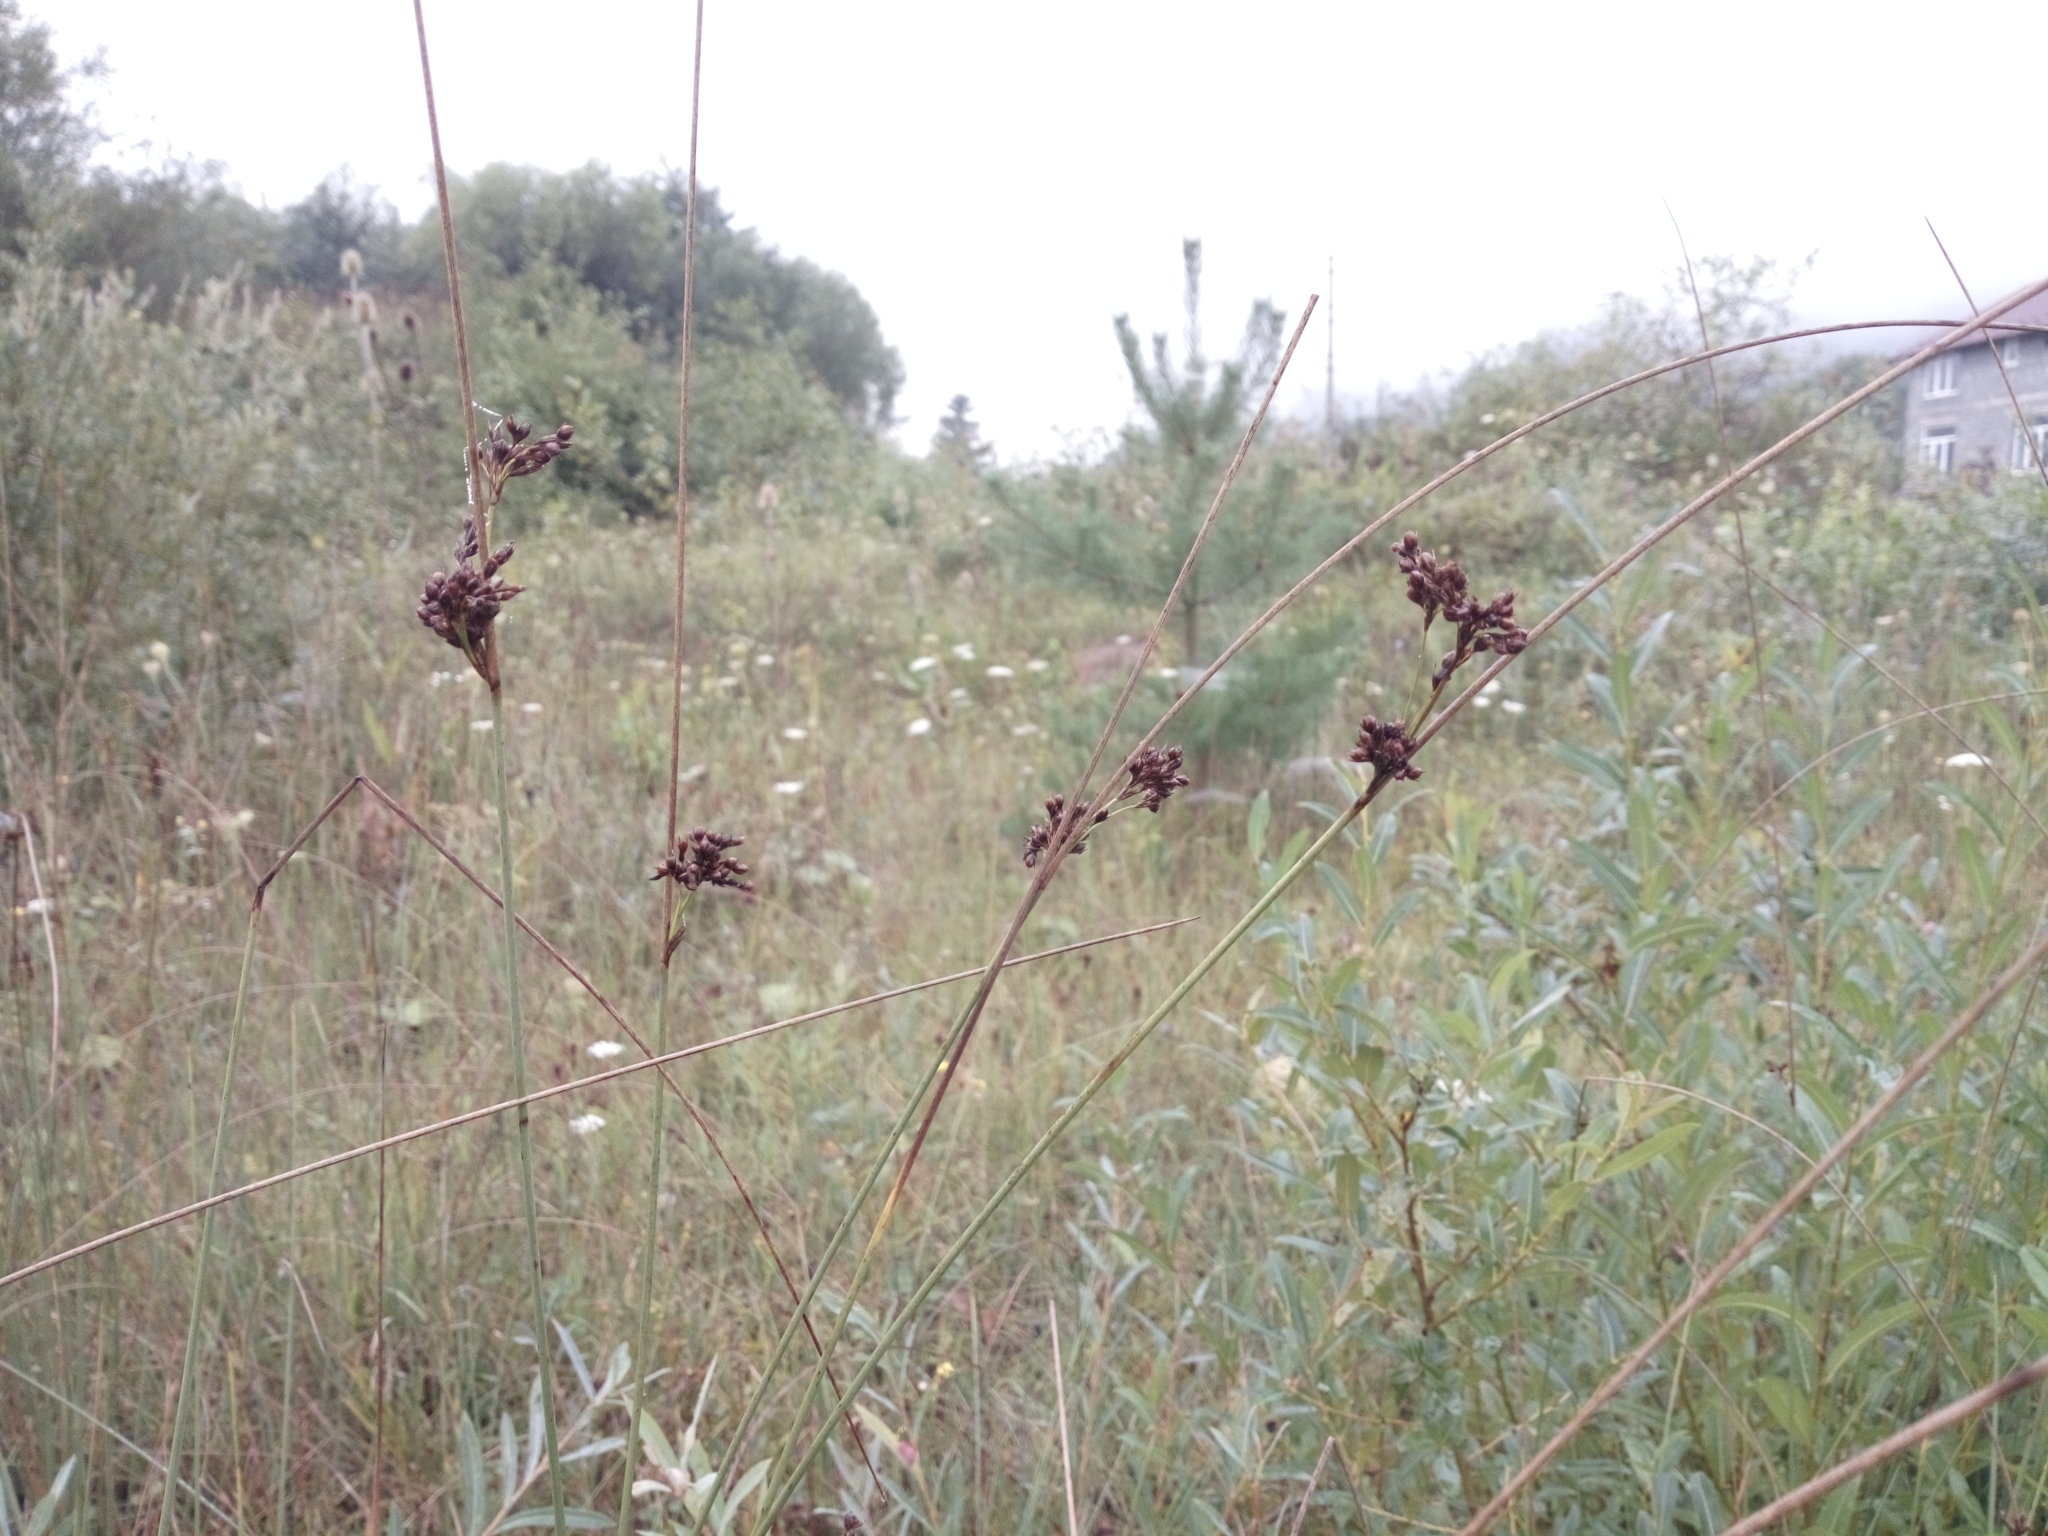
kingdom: Plantae
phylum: Tracheophyta
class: Liliopsida
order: Poales
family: Juncaceae
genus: Juncus
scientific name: Juncus inflexus
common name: Hard rush
